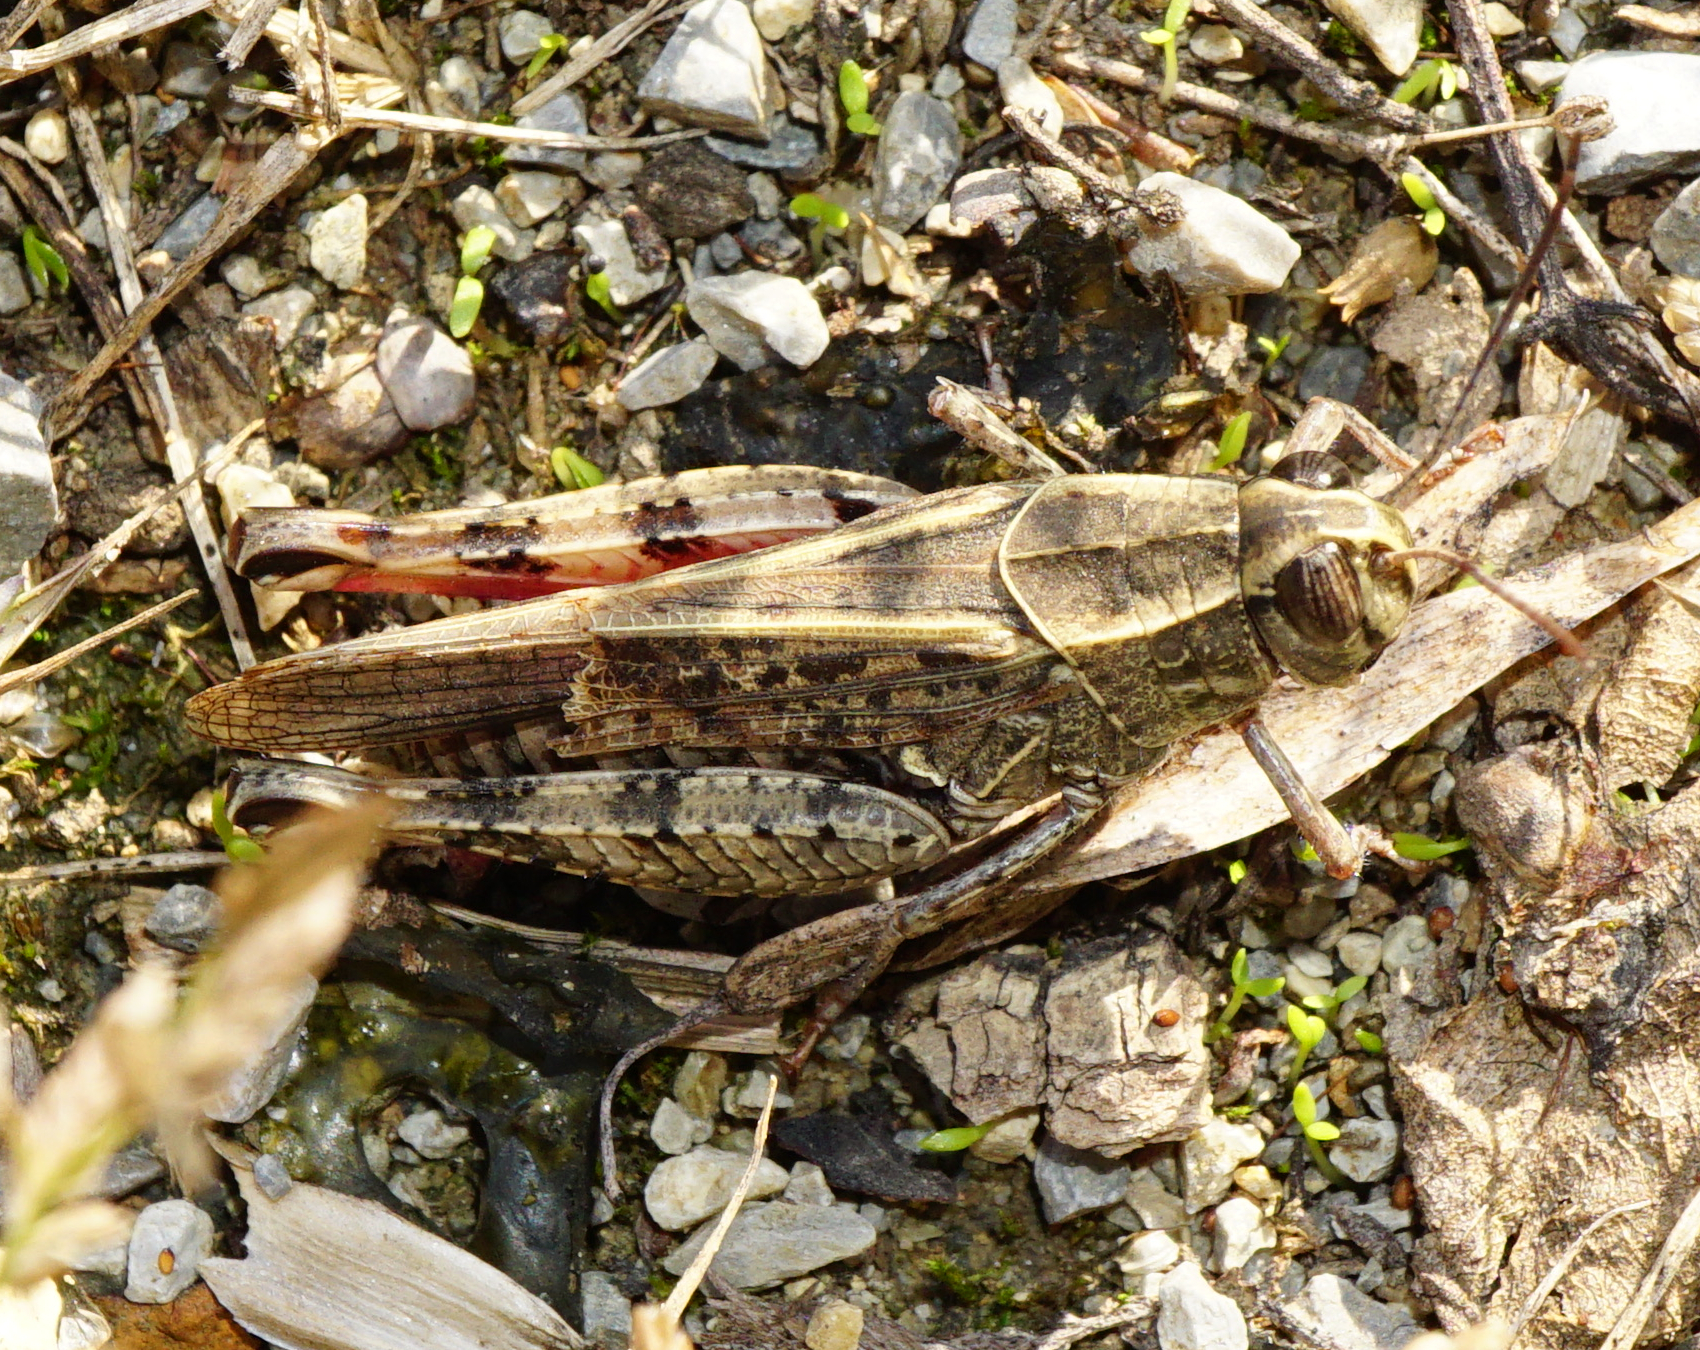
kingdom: Animalia
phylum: Arthropoda
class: Insecta
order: Orthoptera
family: Acrididae
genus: Calliptamus
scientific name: Calliptamus italicus
